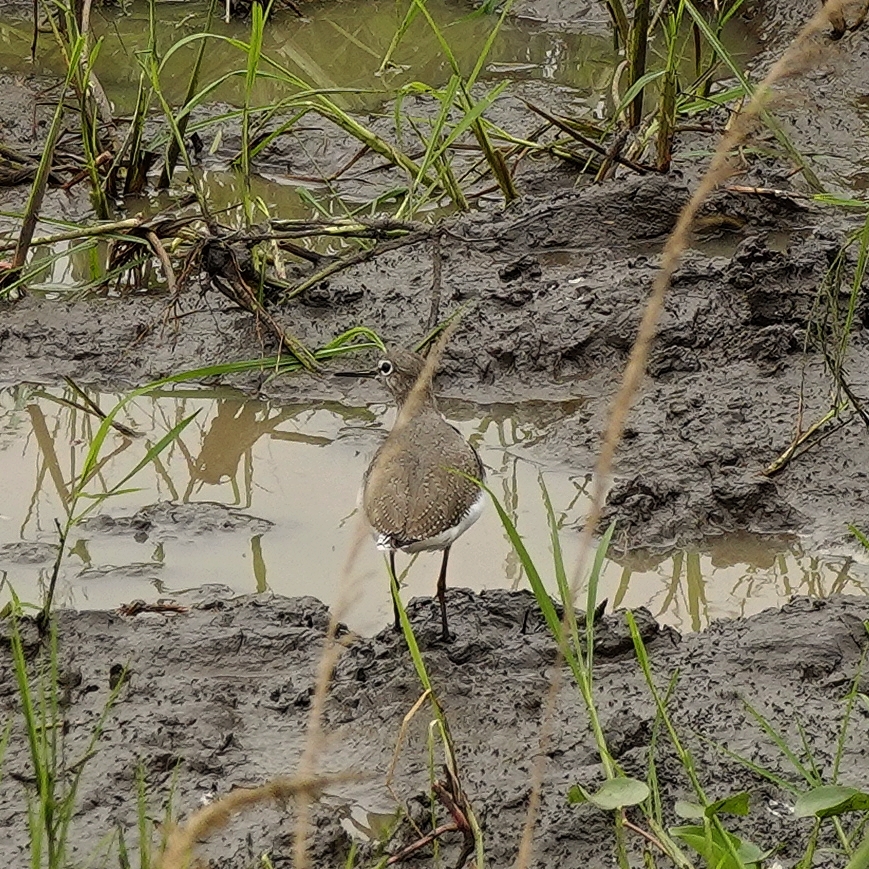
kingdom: Animalia
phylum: Chordata
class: Aves
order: Charadriiformes
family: Scolopacidae
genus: Tringa
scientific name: Tringa ochropus
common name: Green sandpiper
